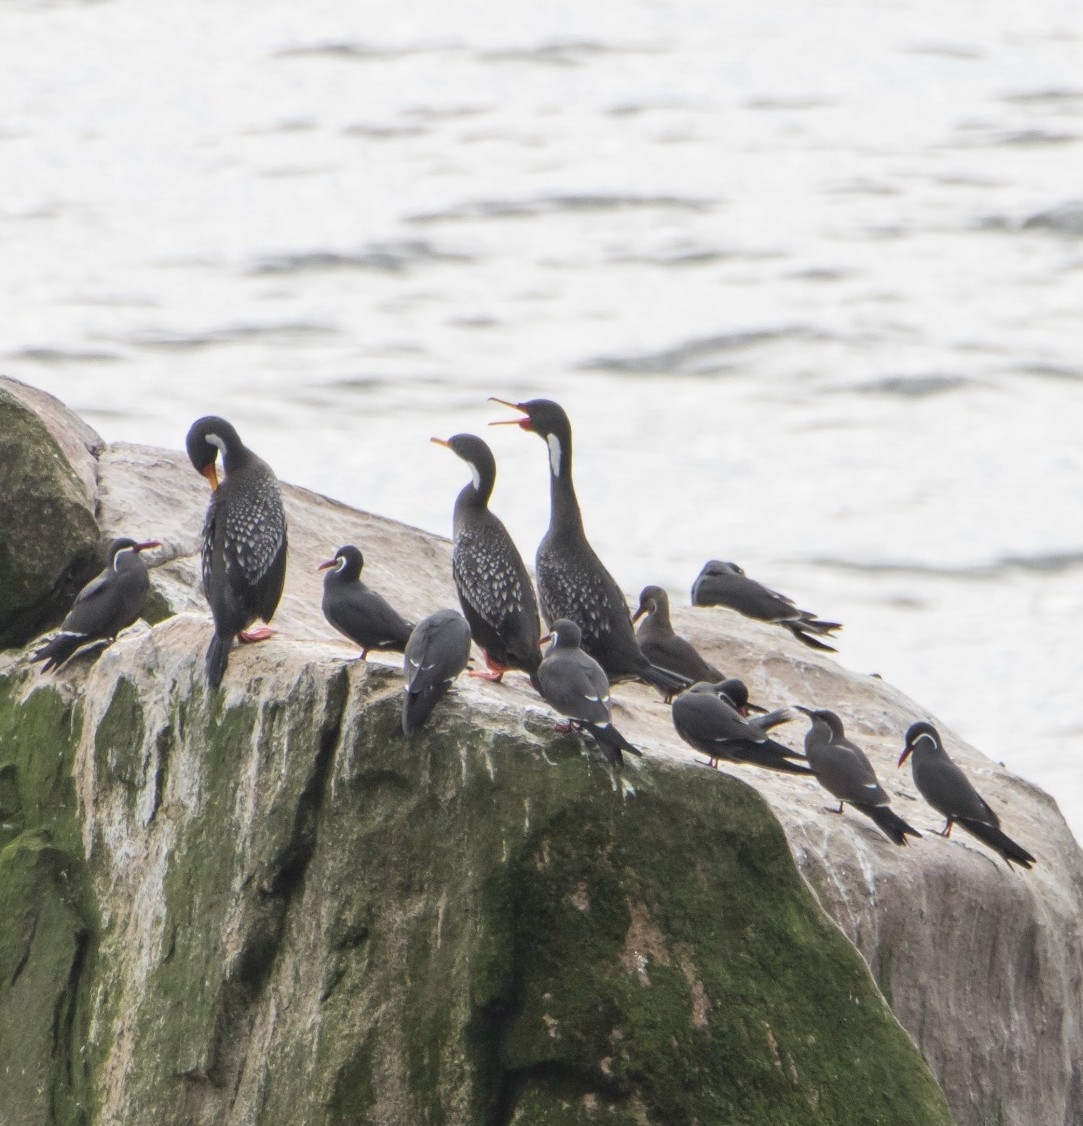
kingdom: Animalia
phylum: Chordata
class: Aves
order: Charadriiformes
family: Laridae
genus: Larosterna
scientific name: Larosterna inca
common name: Inca tern
